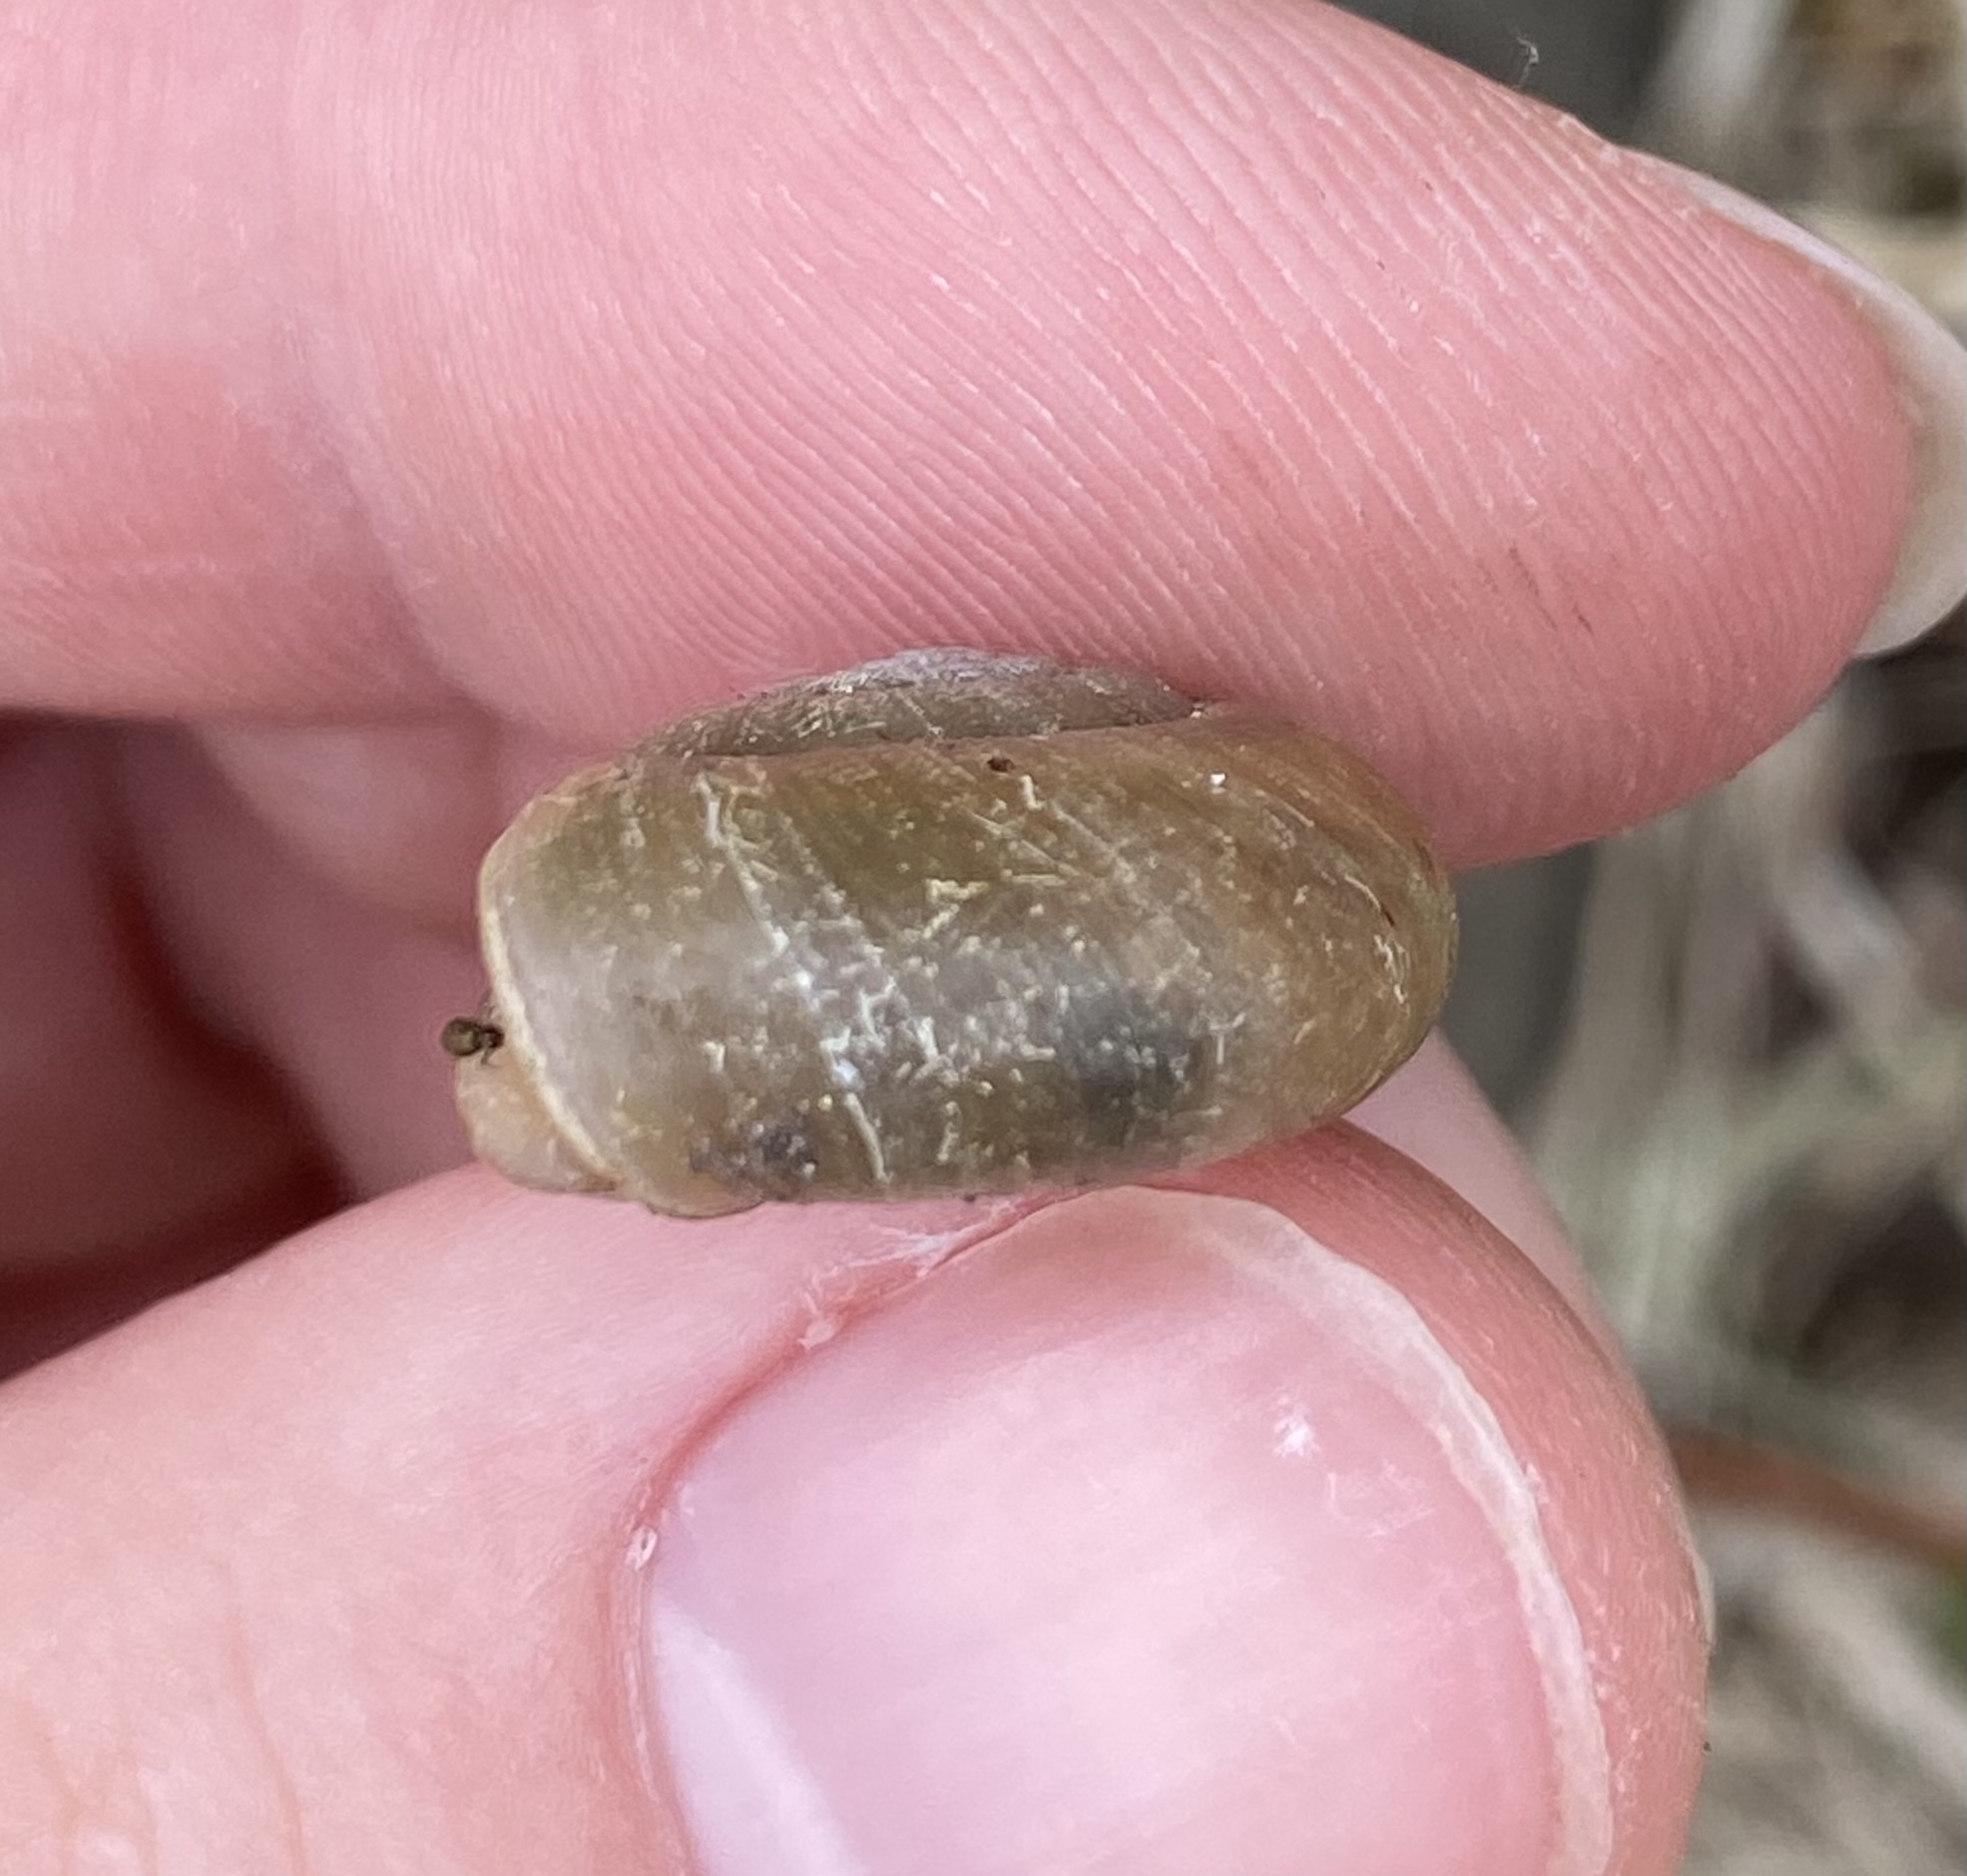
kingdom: Animalia
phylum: Mollusca
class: Gastropoda
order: Stylommatophora
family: Haplotrematidae
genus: Haplotrema
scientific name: Haplotrema concavum
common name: Gray-foot lancetooth
